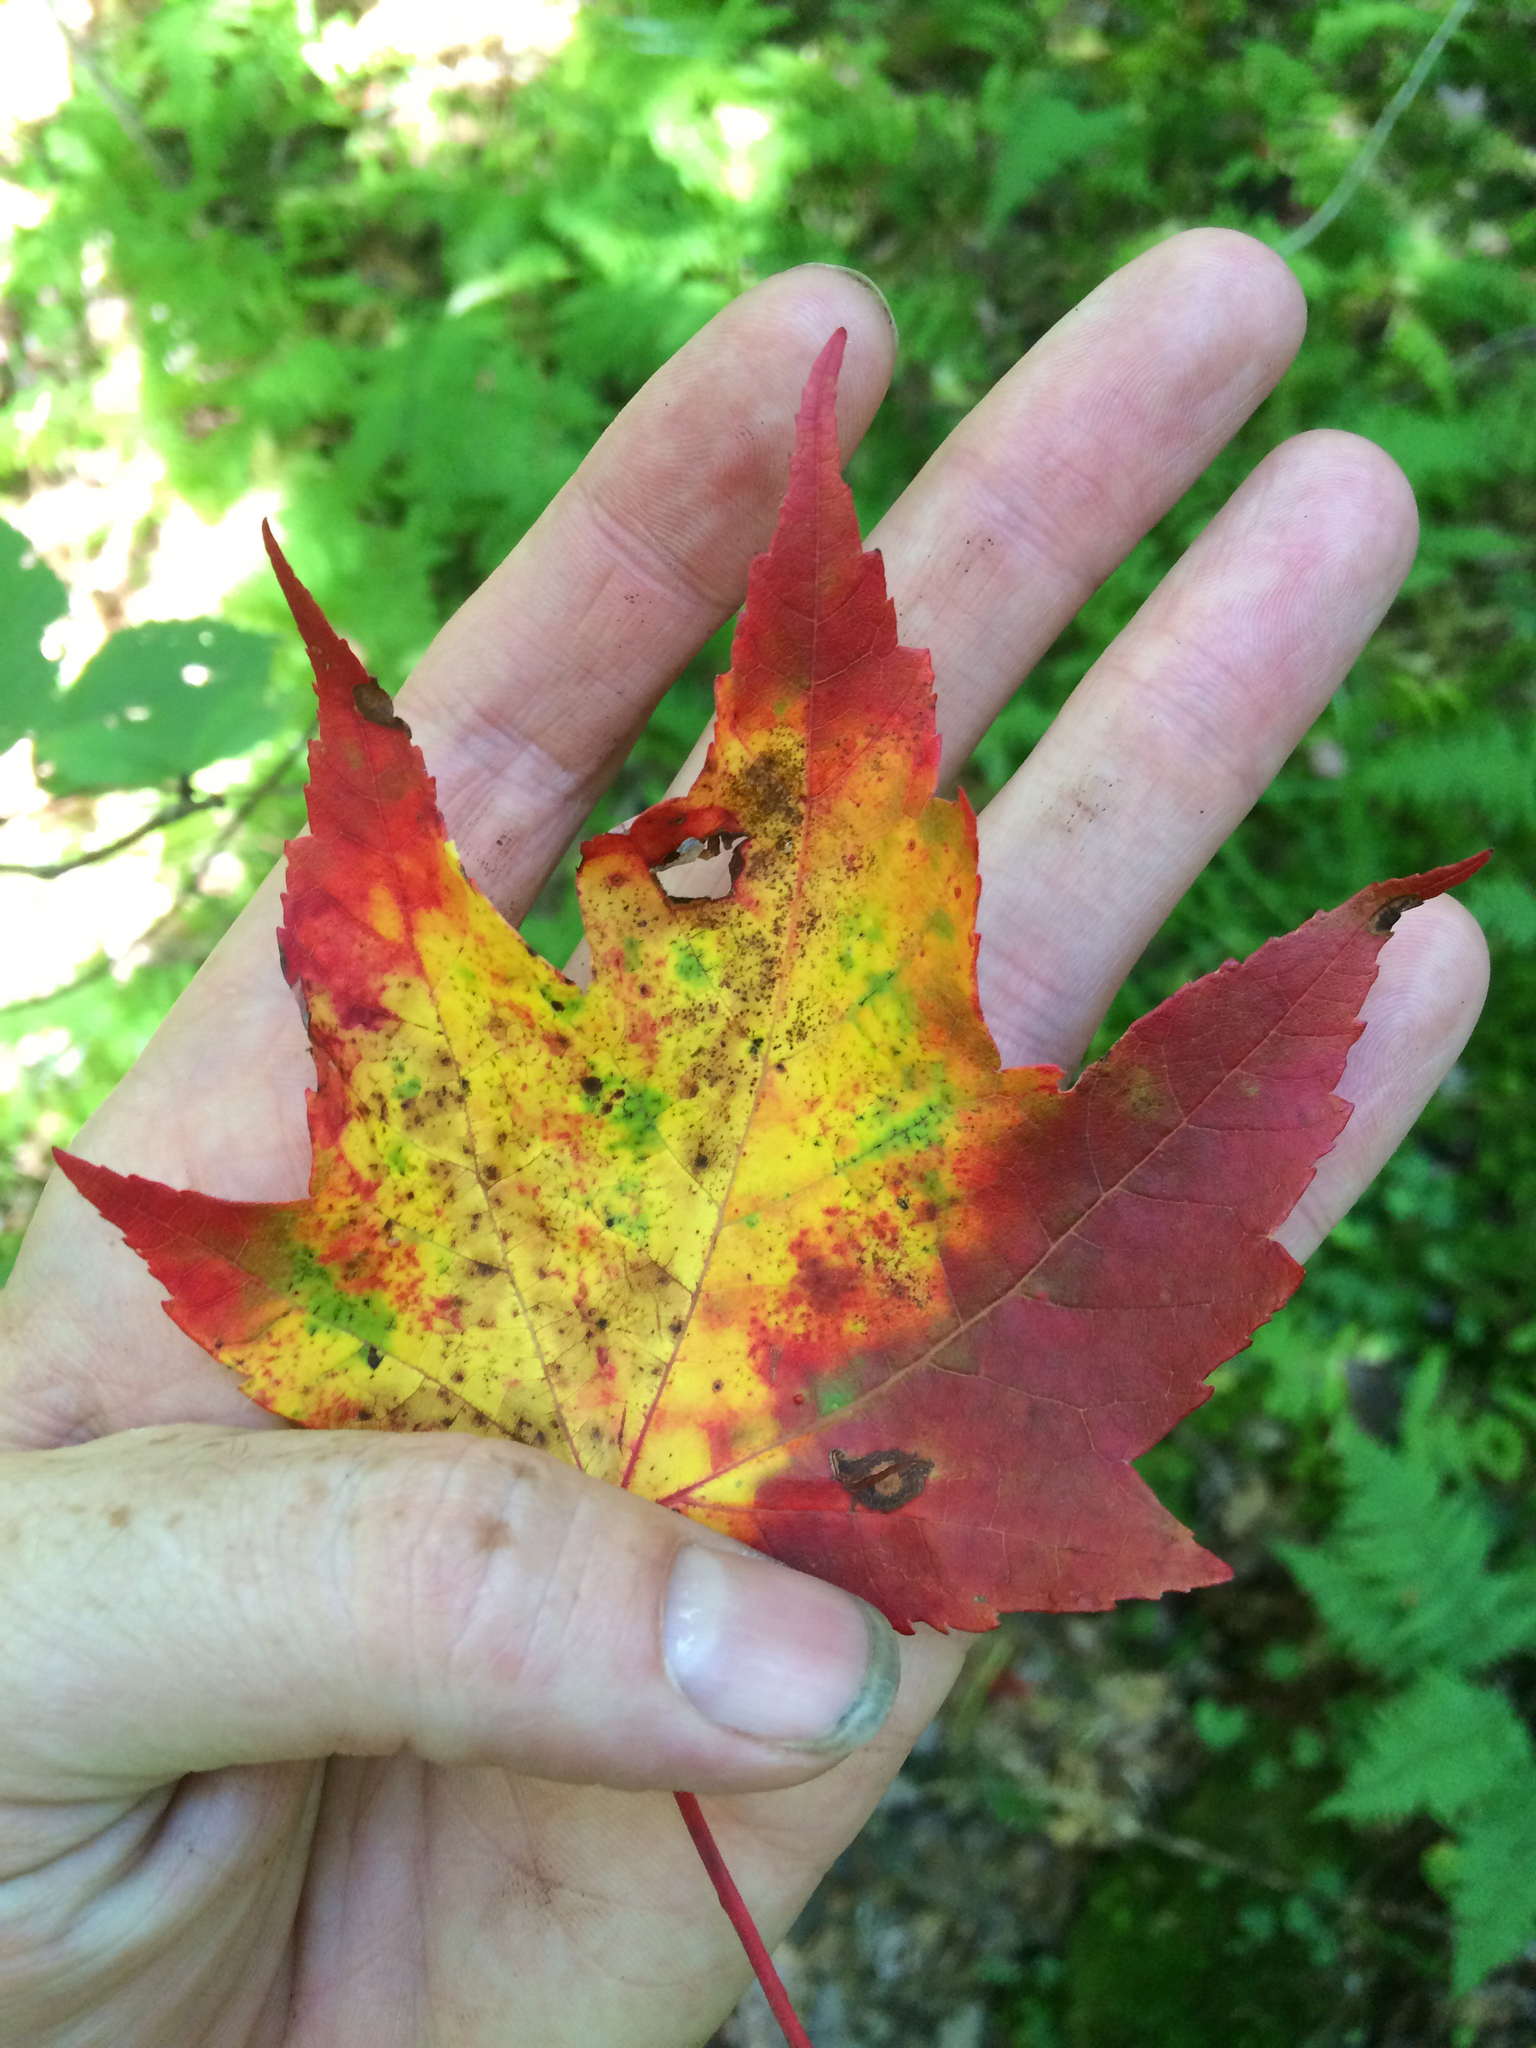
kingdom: Plantae
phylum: Tracheophyta
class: Magnoliopsida
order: Sapindales
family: Sapindaceae
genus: Acer
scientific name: Acer rubrum
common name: Red maple
